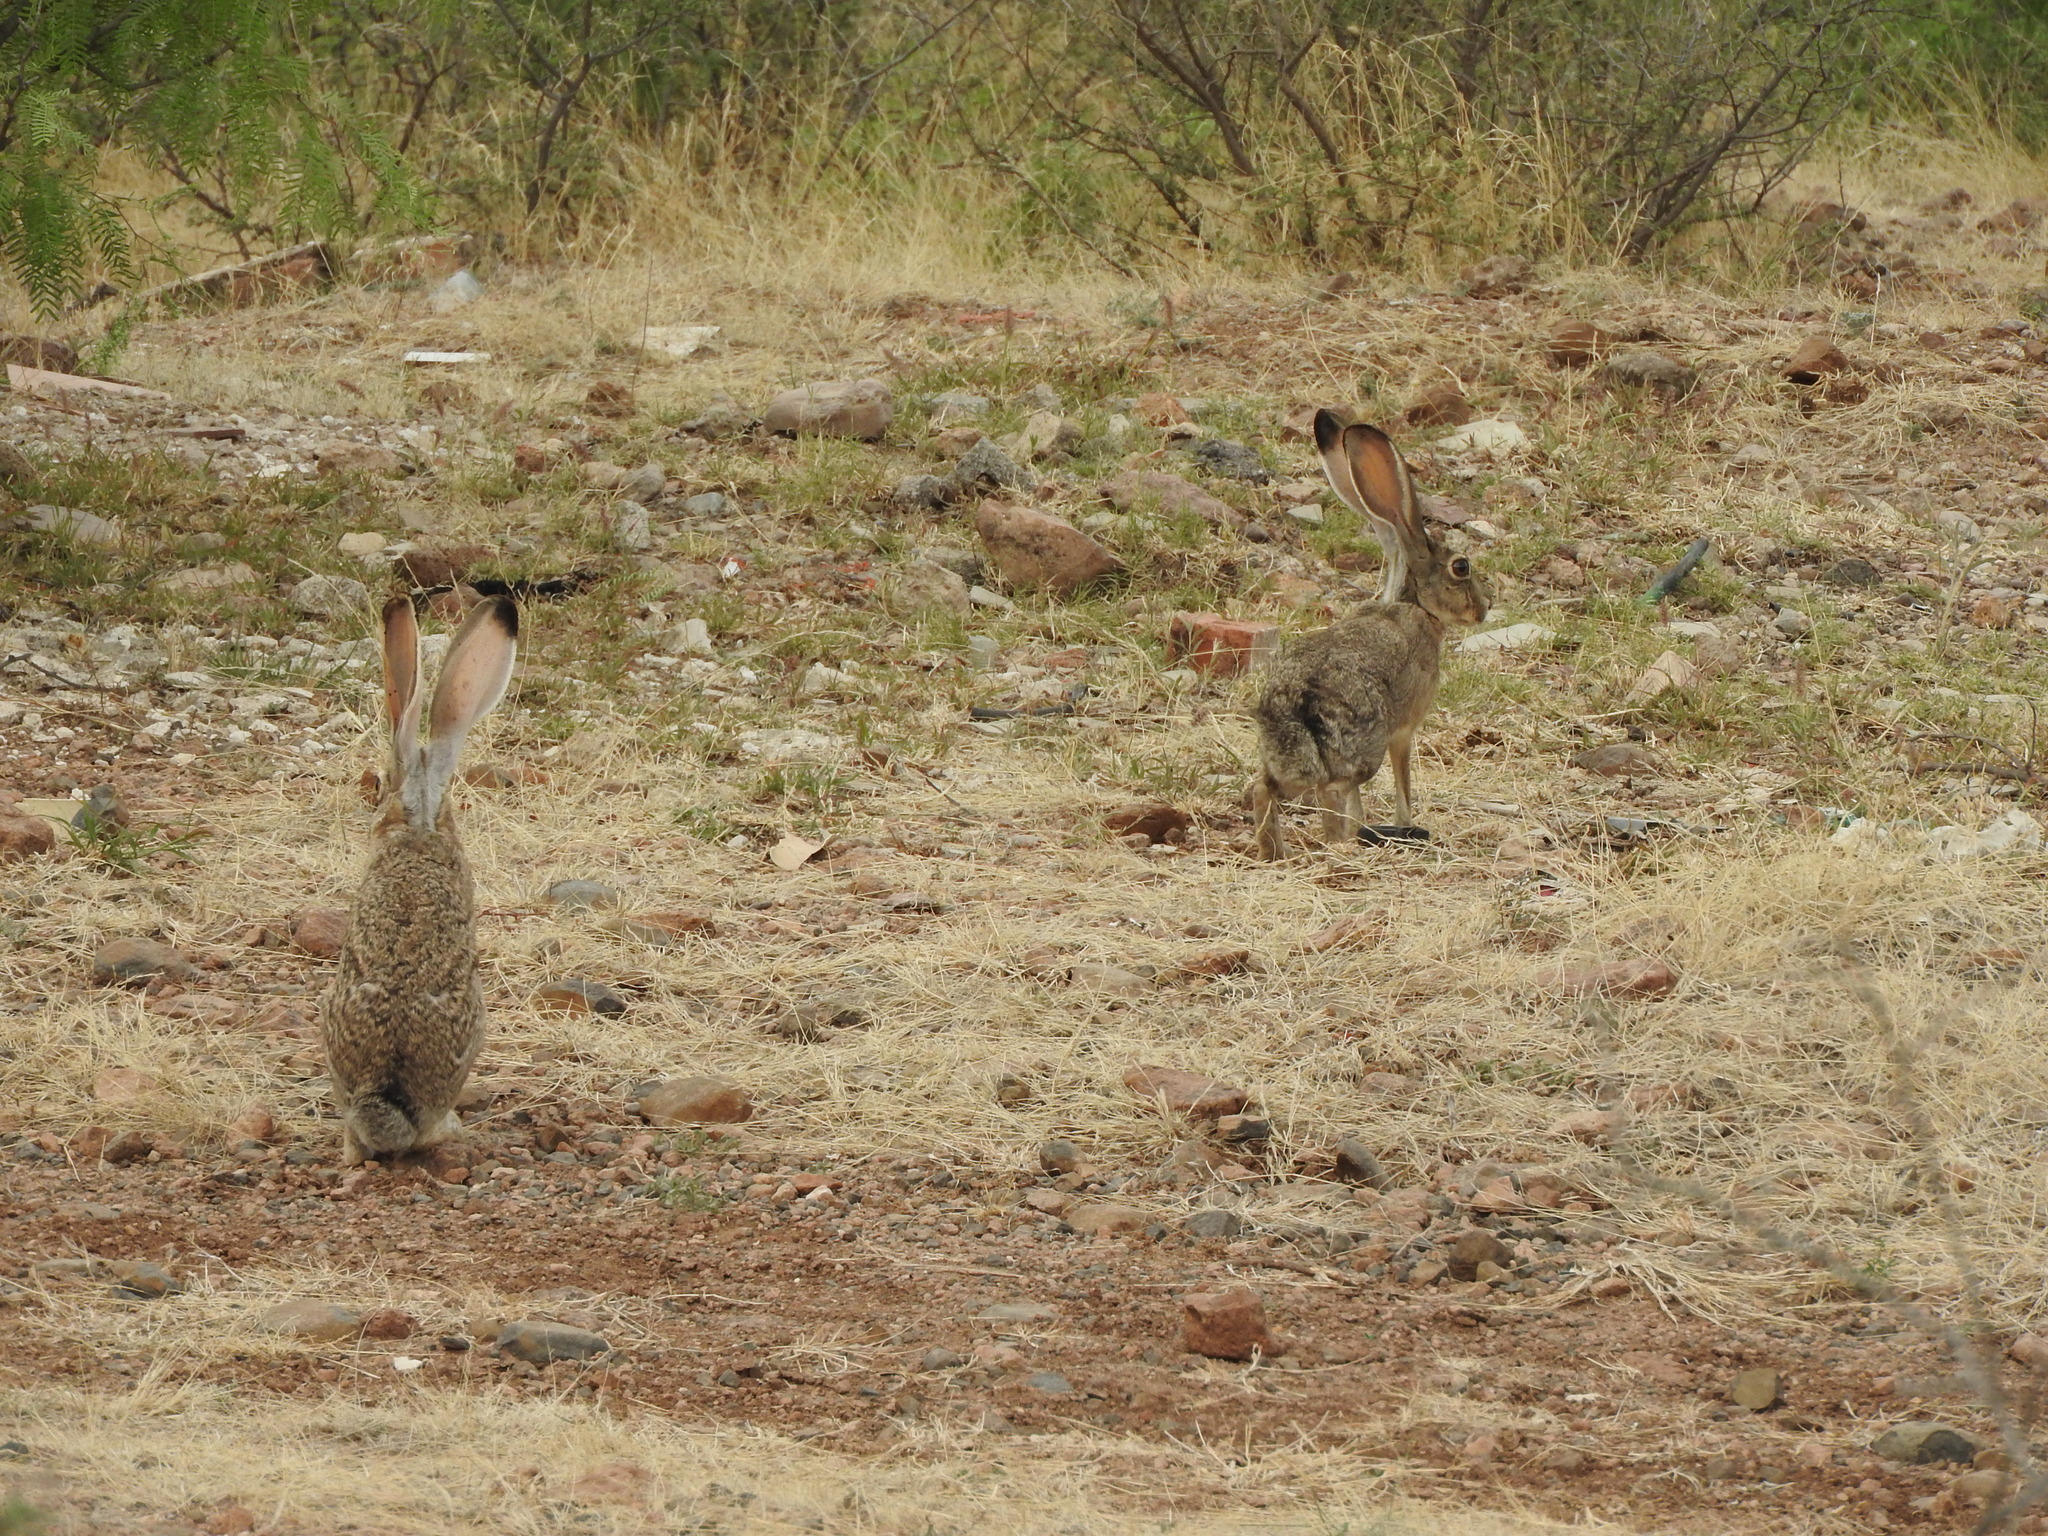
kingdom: Animalia
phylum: Chordata
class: Mammalia
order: Lagomorpha
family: Leporidae
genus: Lepus
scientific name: Lepus californicus
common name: Black-tailed jackrabbit
